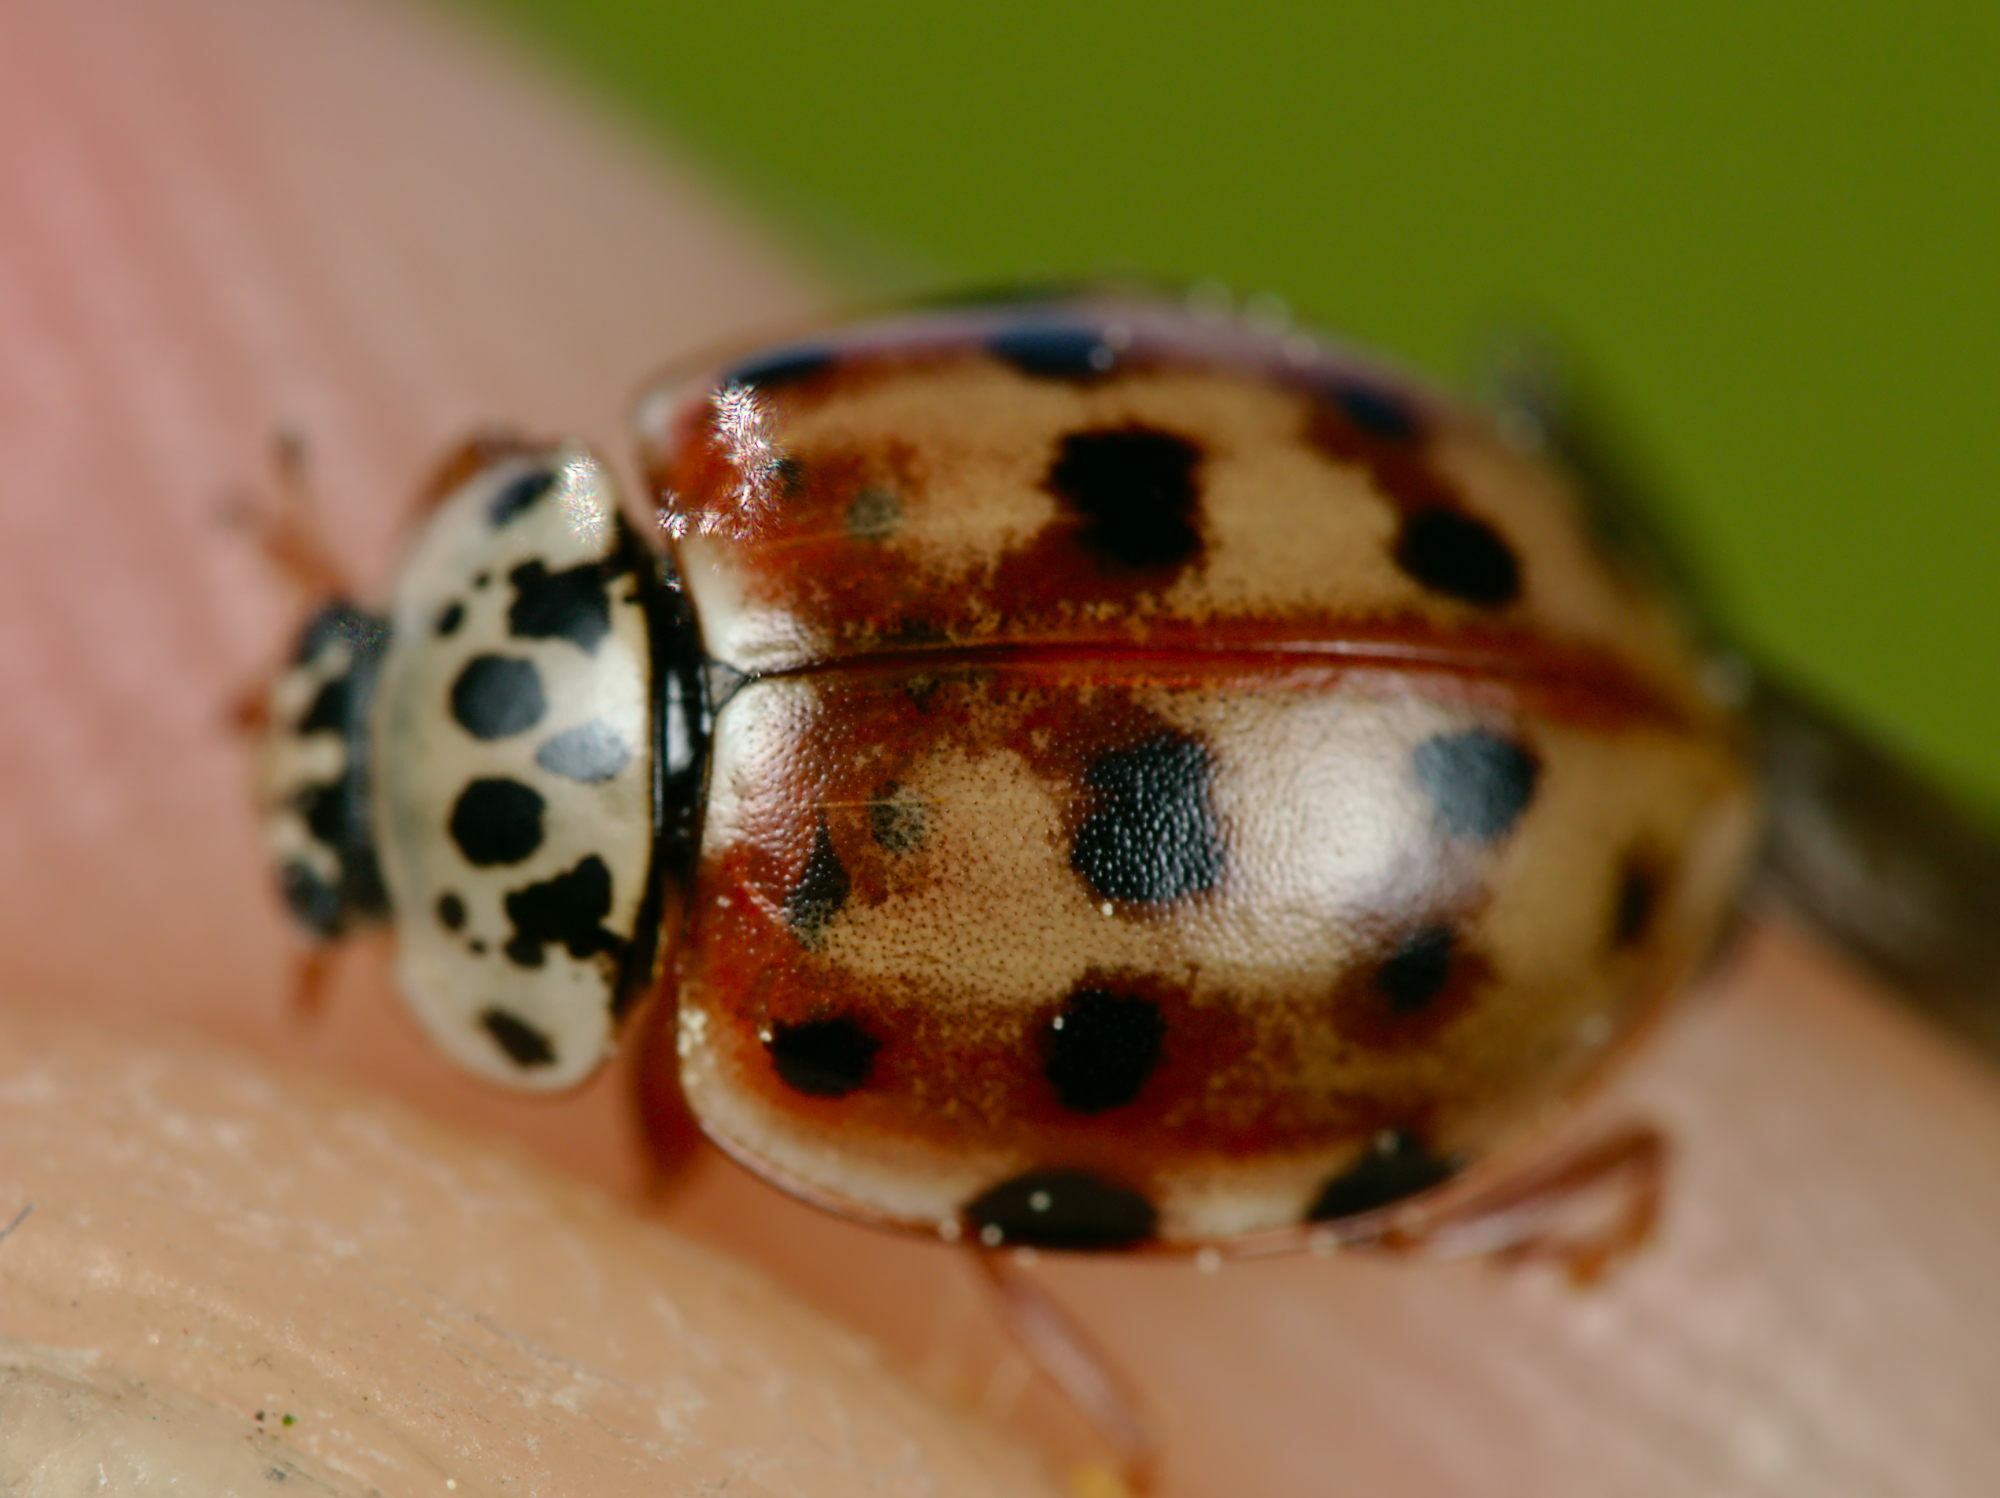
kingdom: Animalia
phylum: Arthropoda
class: Insecta
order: Coleoptera
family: Coccinellidae
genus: Harmonia
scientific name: Harmonia quadripunctata
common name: Cream-streaked ladybird
